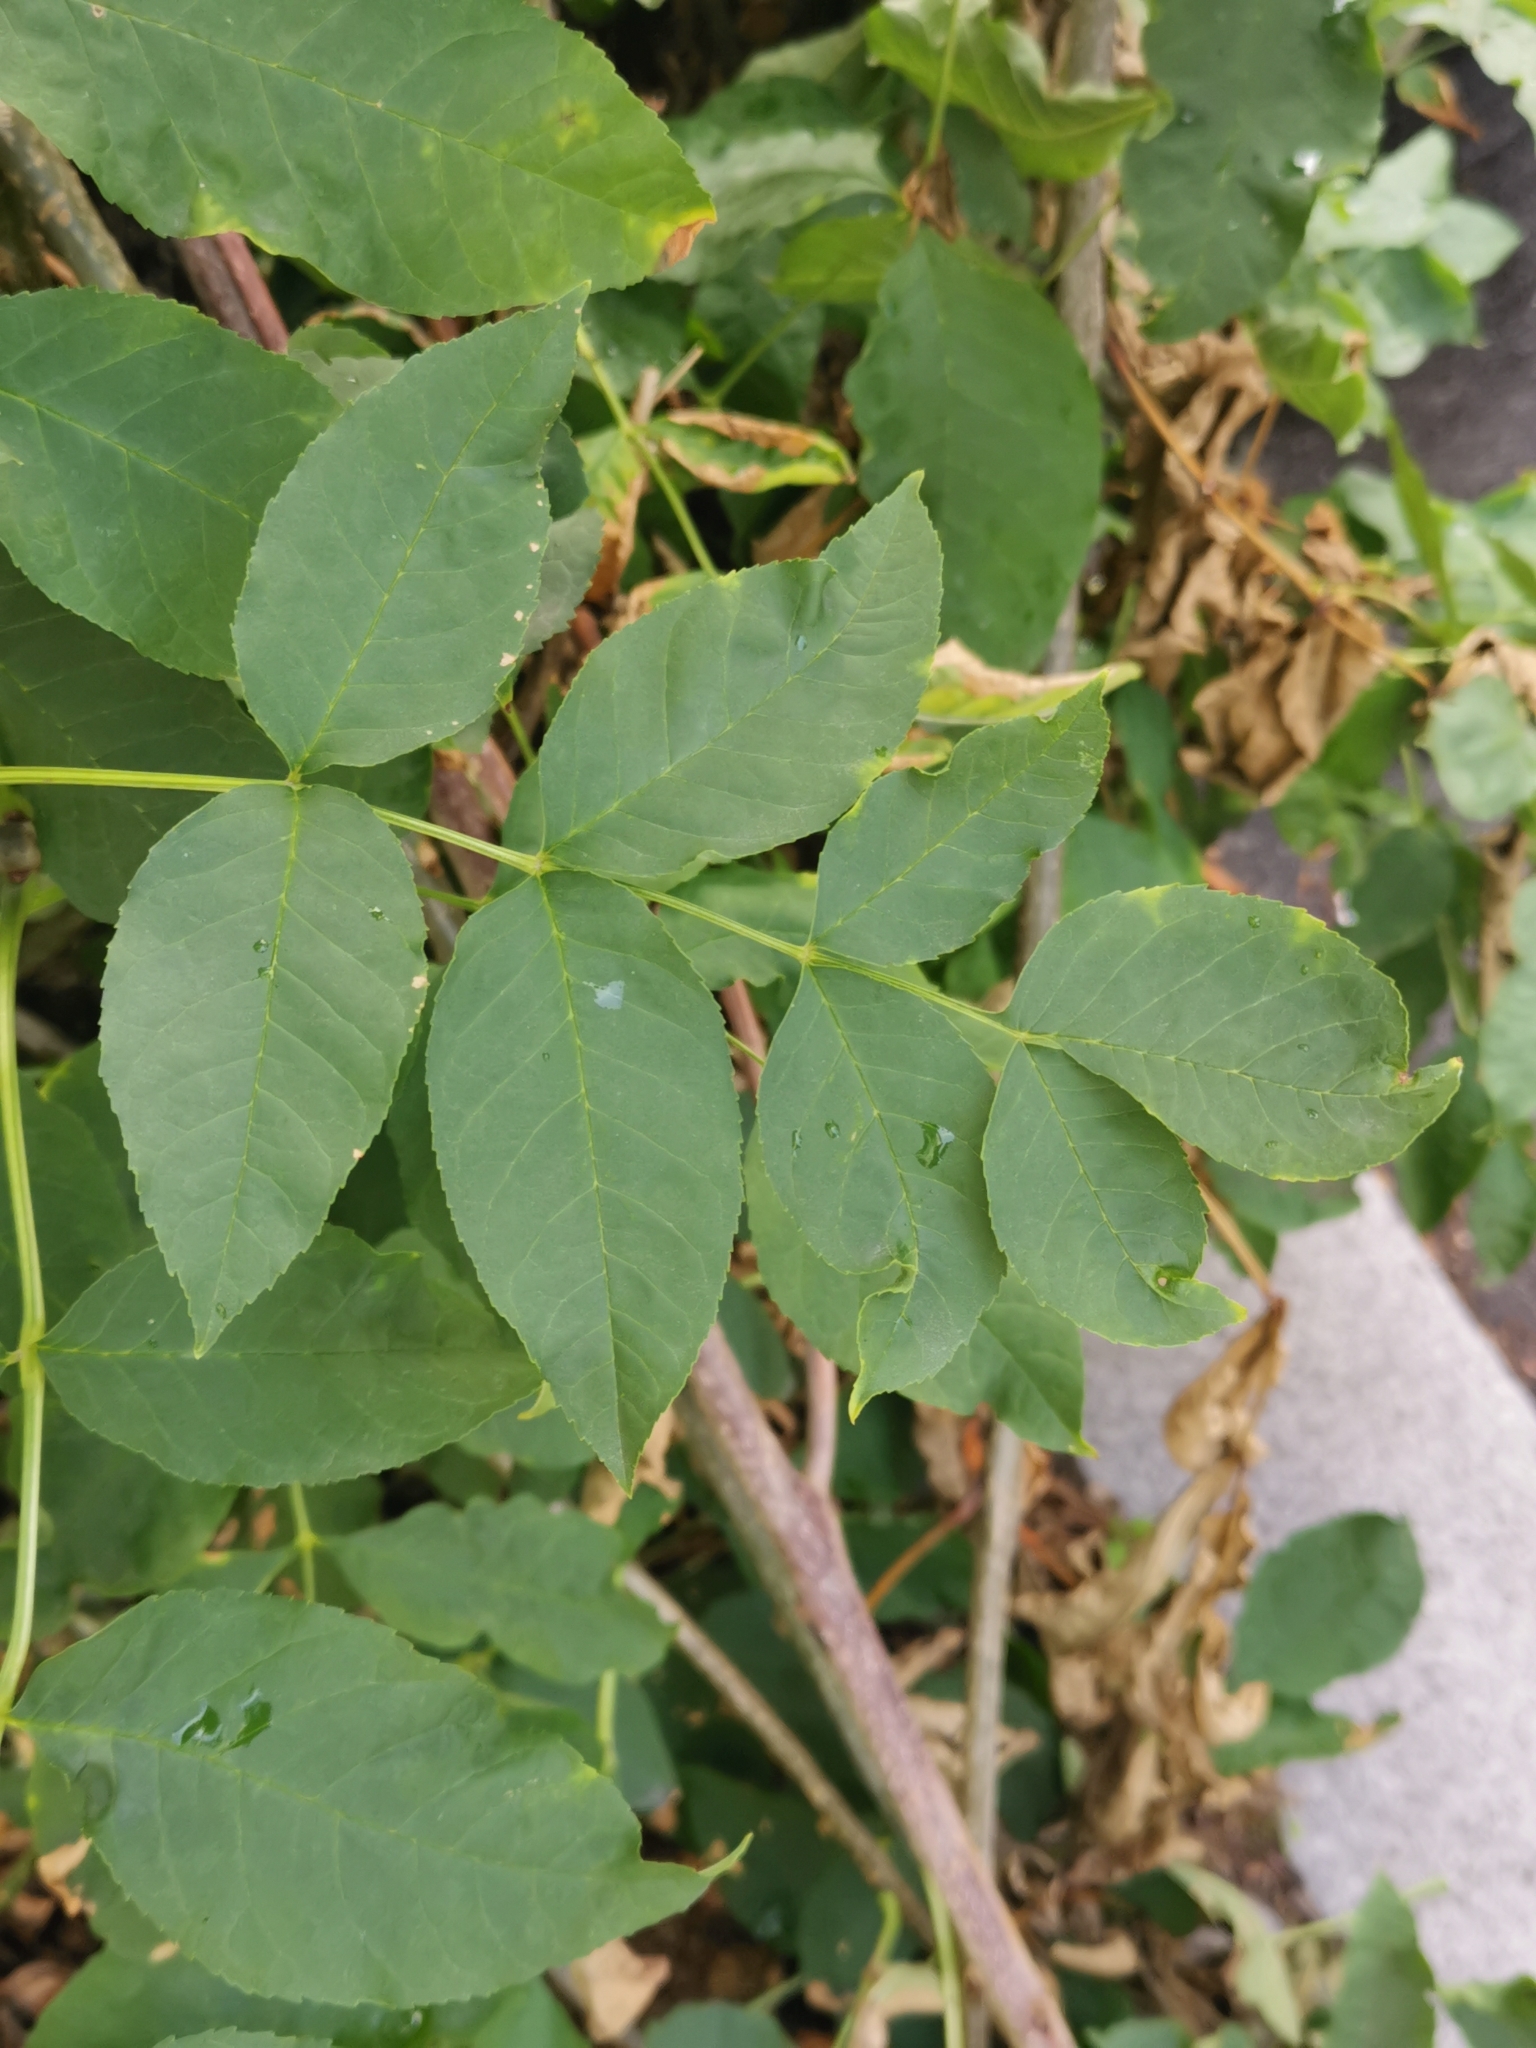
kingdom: Plantae
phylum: Tracheophyta
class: Magnoliopsida
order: Lamiales
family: Oleaceae
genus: Fraxinus
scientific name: Fraxinus excelsior
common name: European ash
